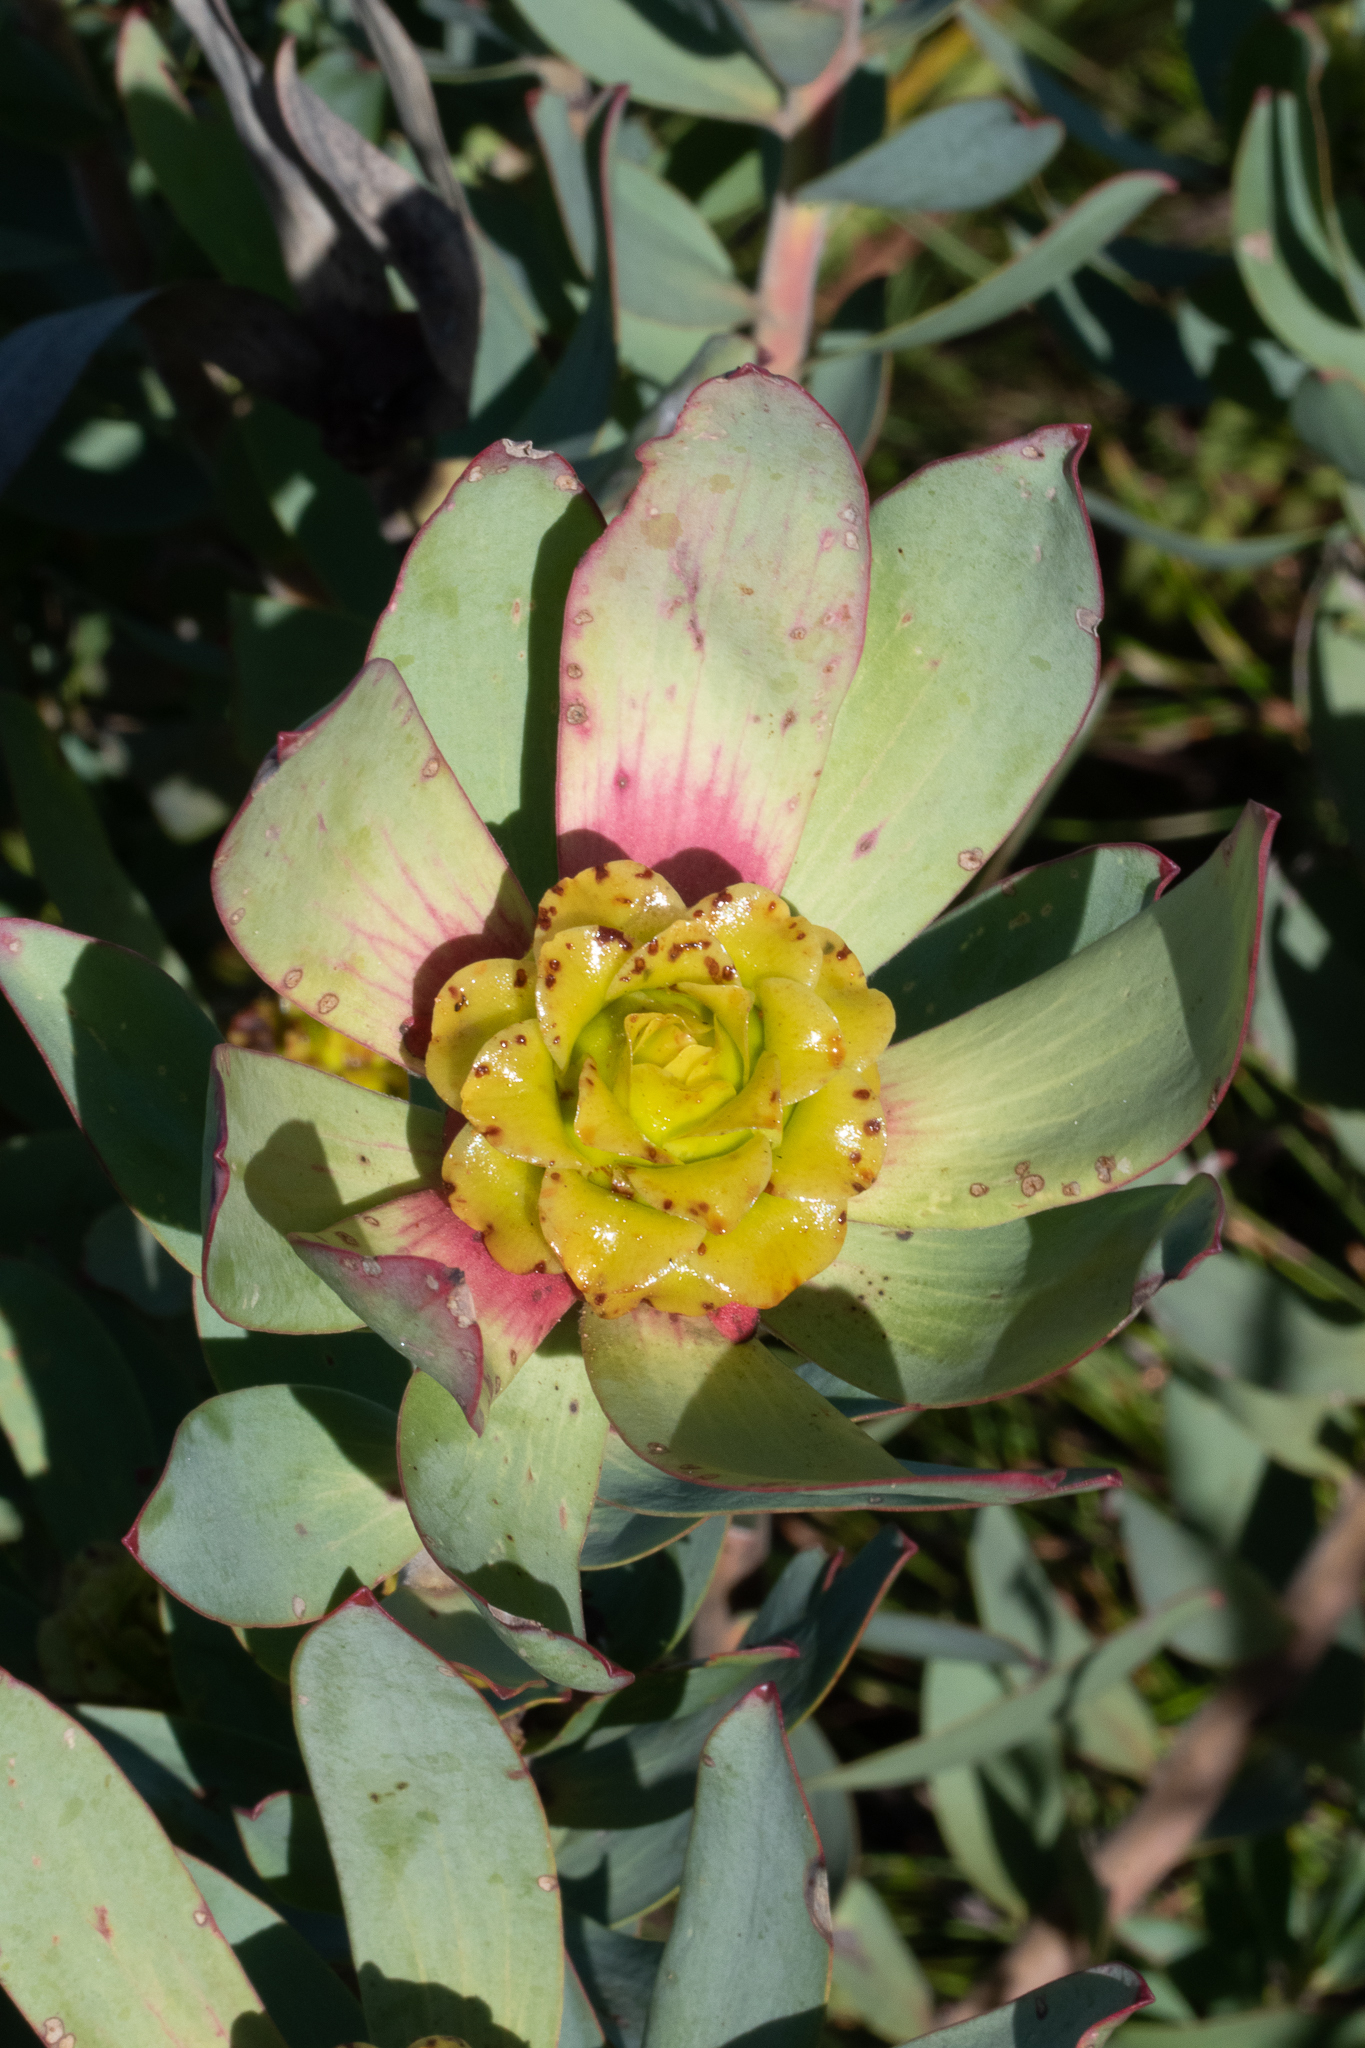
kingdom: Plantae
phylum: Tracheophyta
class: Magnoliopsida
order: Proteales
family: Proteaceae
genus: Leucadendron
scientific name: Leucadendron tinctum
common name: Spicy conebush
